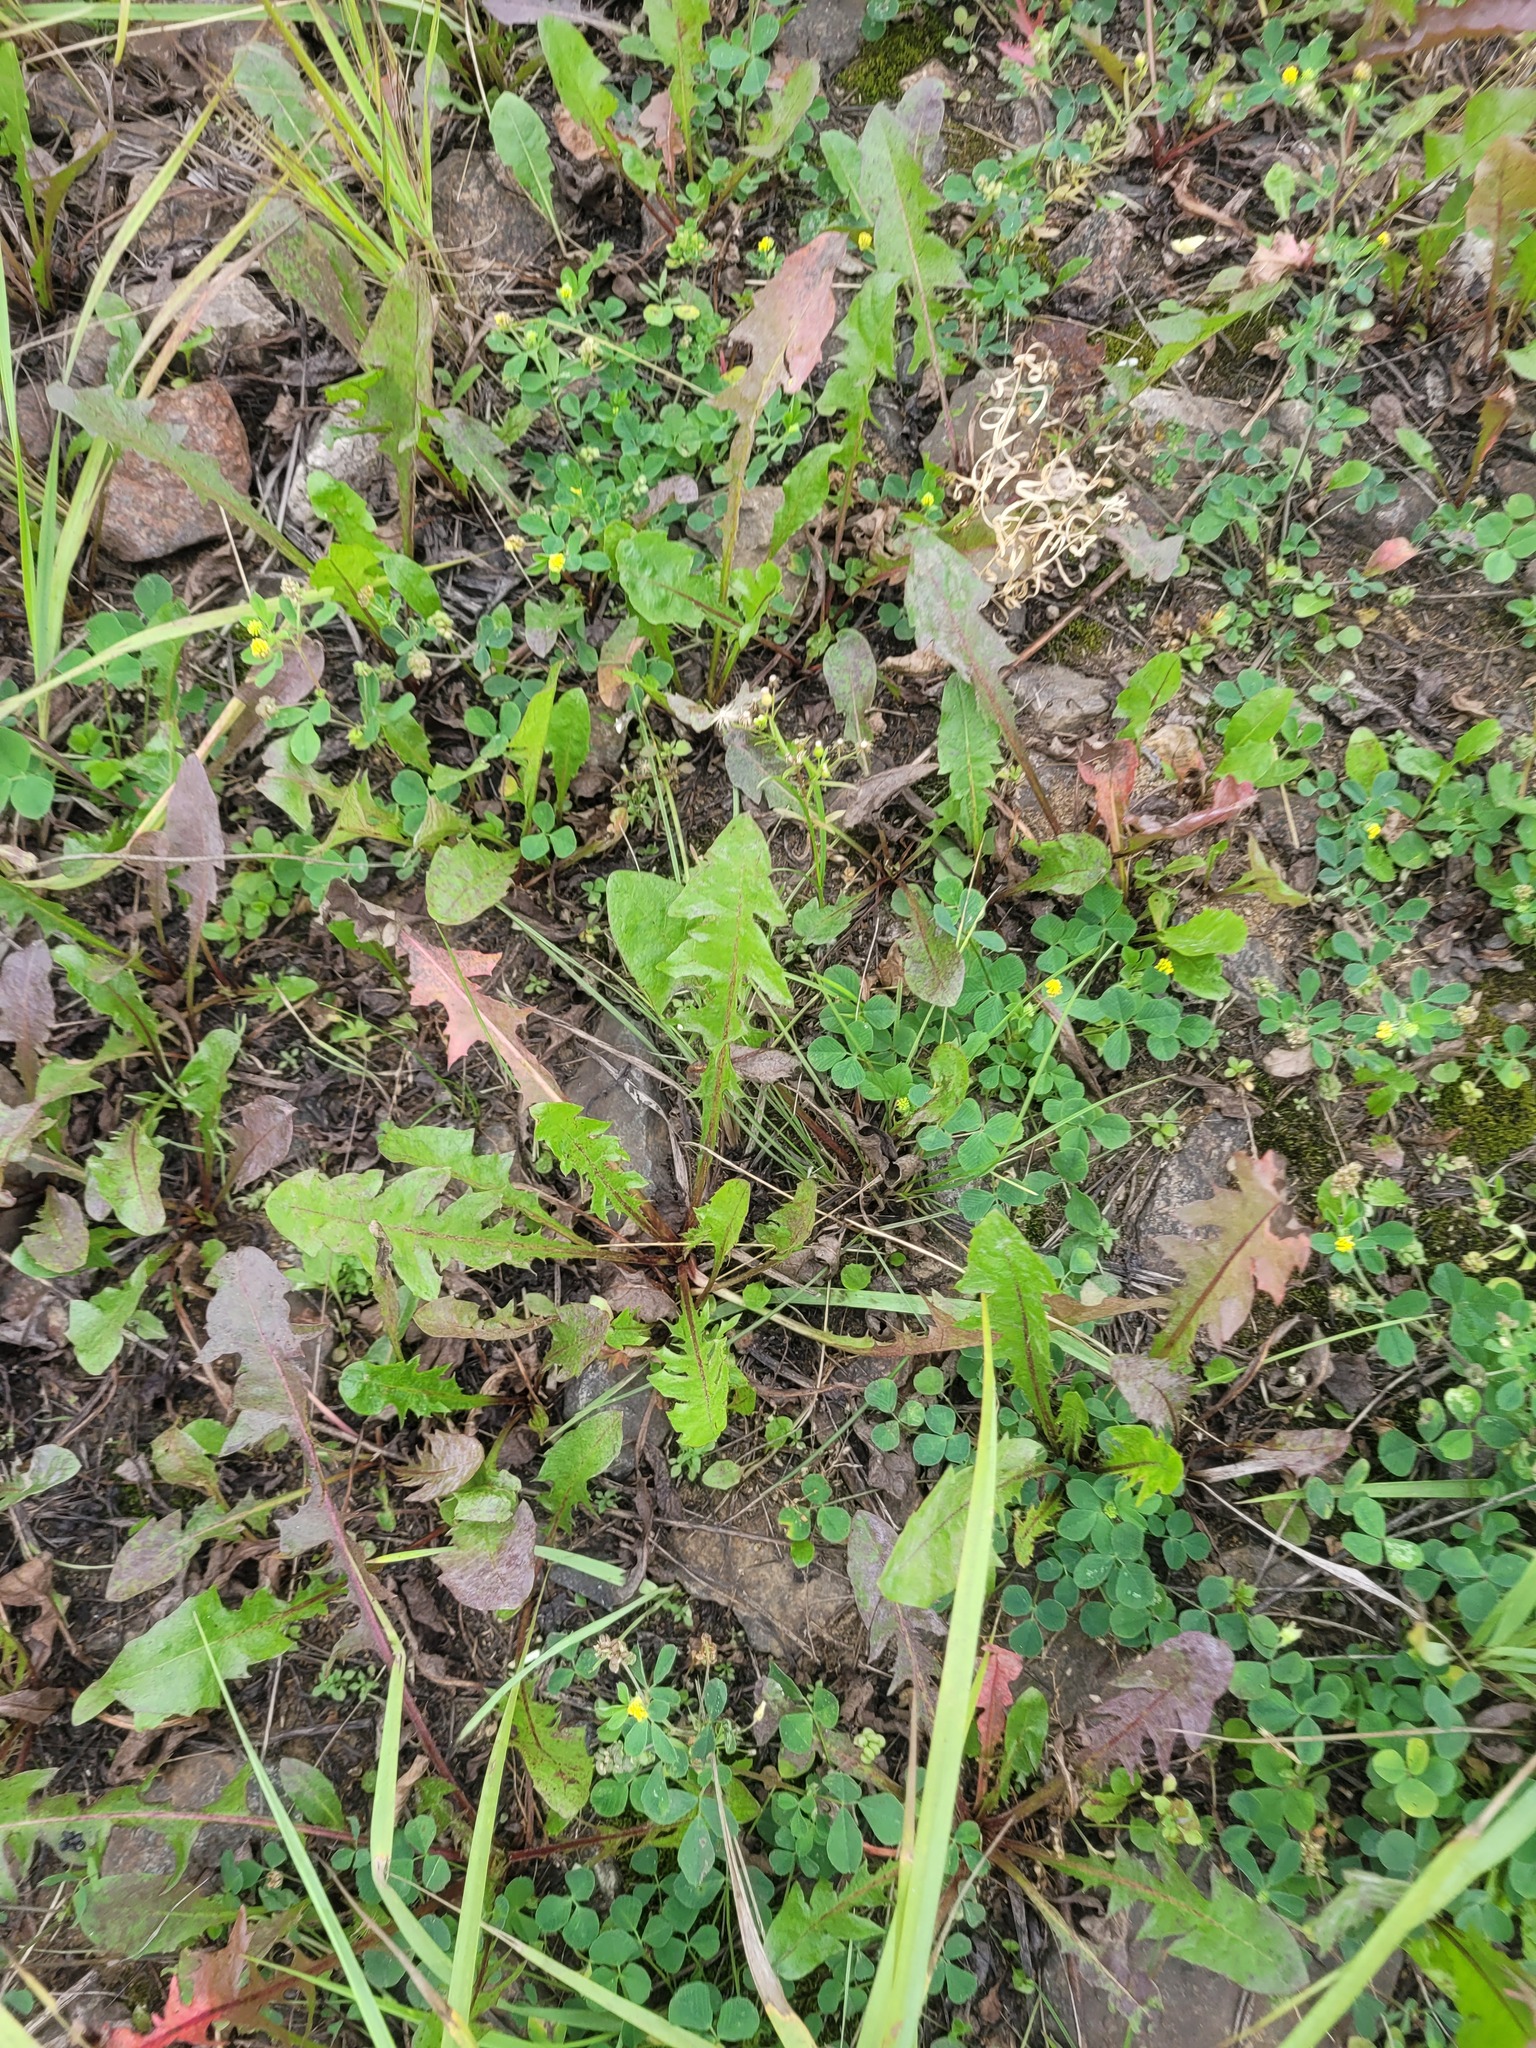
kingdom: Plantae
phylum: Tracheophyta
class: Magnoliopsida
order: Asterales
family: Asteraceae
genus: Taraxacum
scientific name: Taraxacum officinale
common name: Common dandelion
